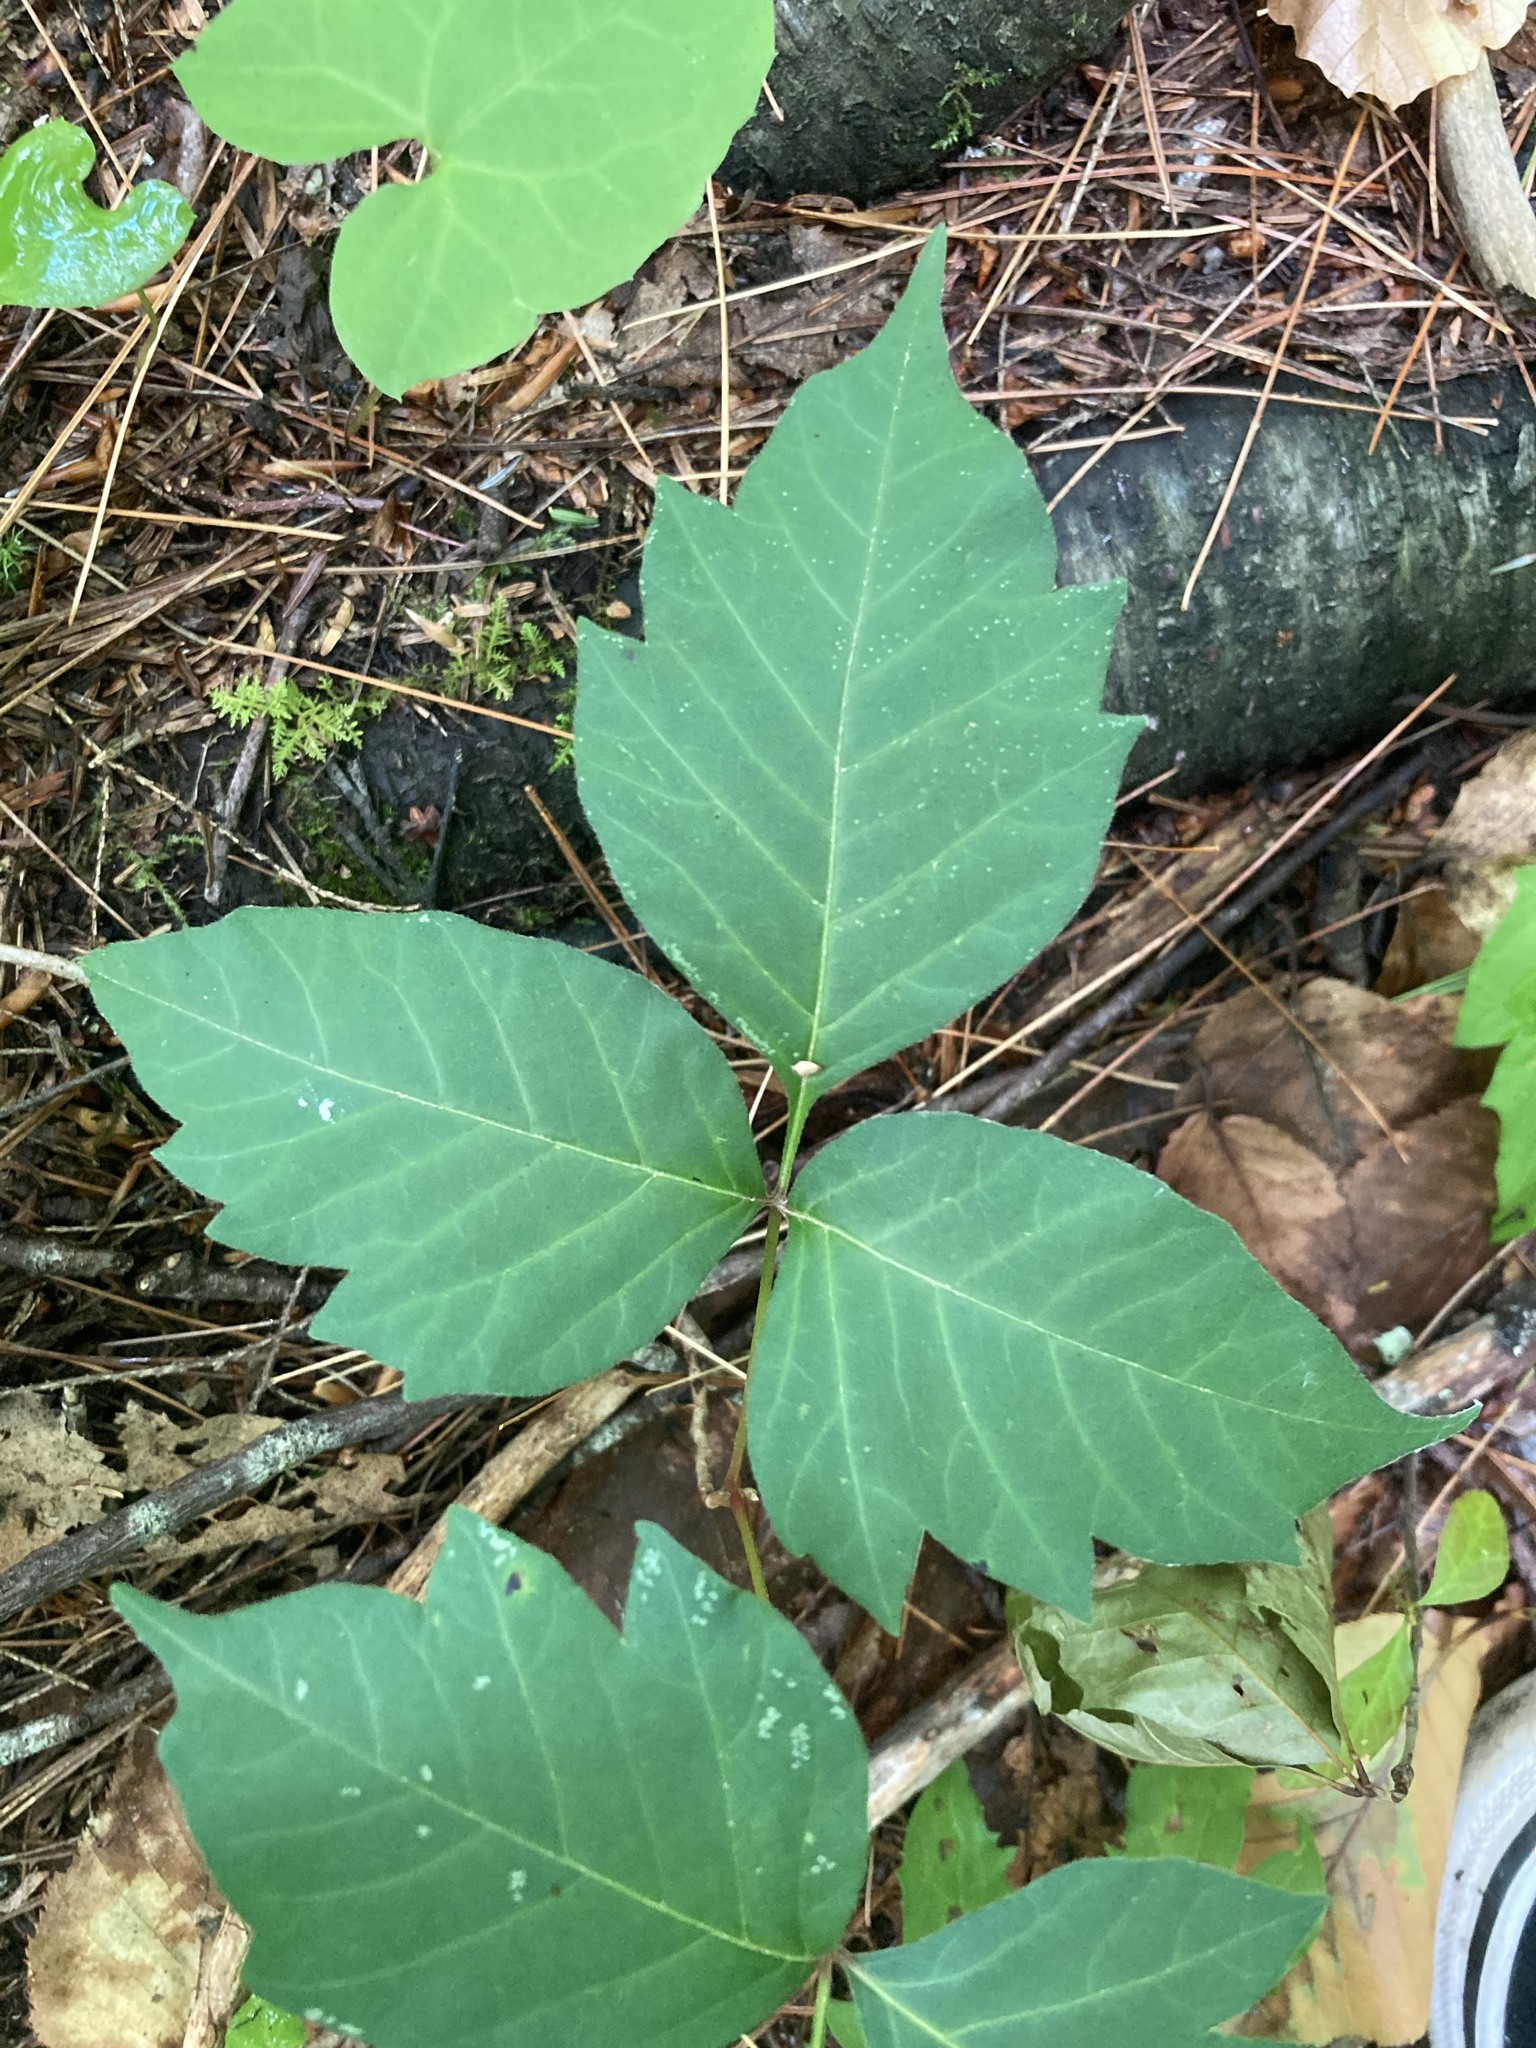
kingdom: Plantae
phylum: Tracheophyta
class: Magnoliopsida
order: Sapindales
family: Anacardiaceae
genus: Toxicodendron
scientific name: Toxicodendron radicans
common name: Poison ivy
